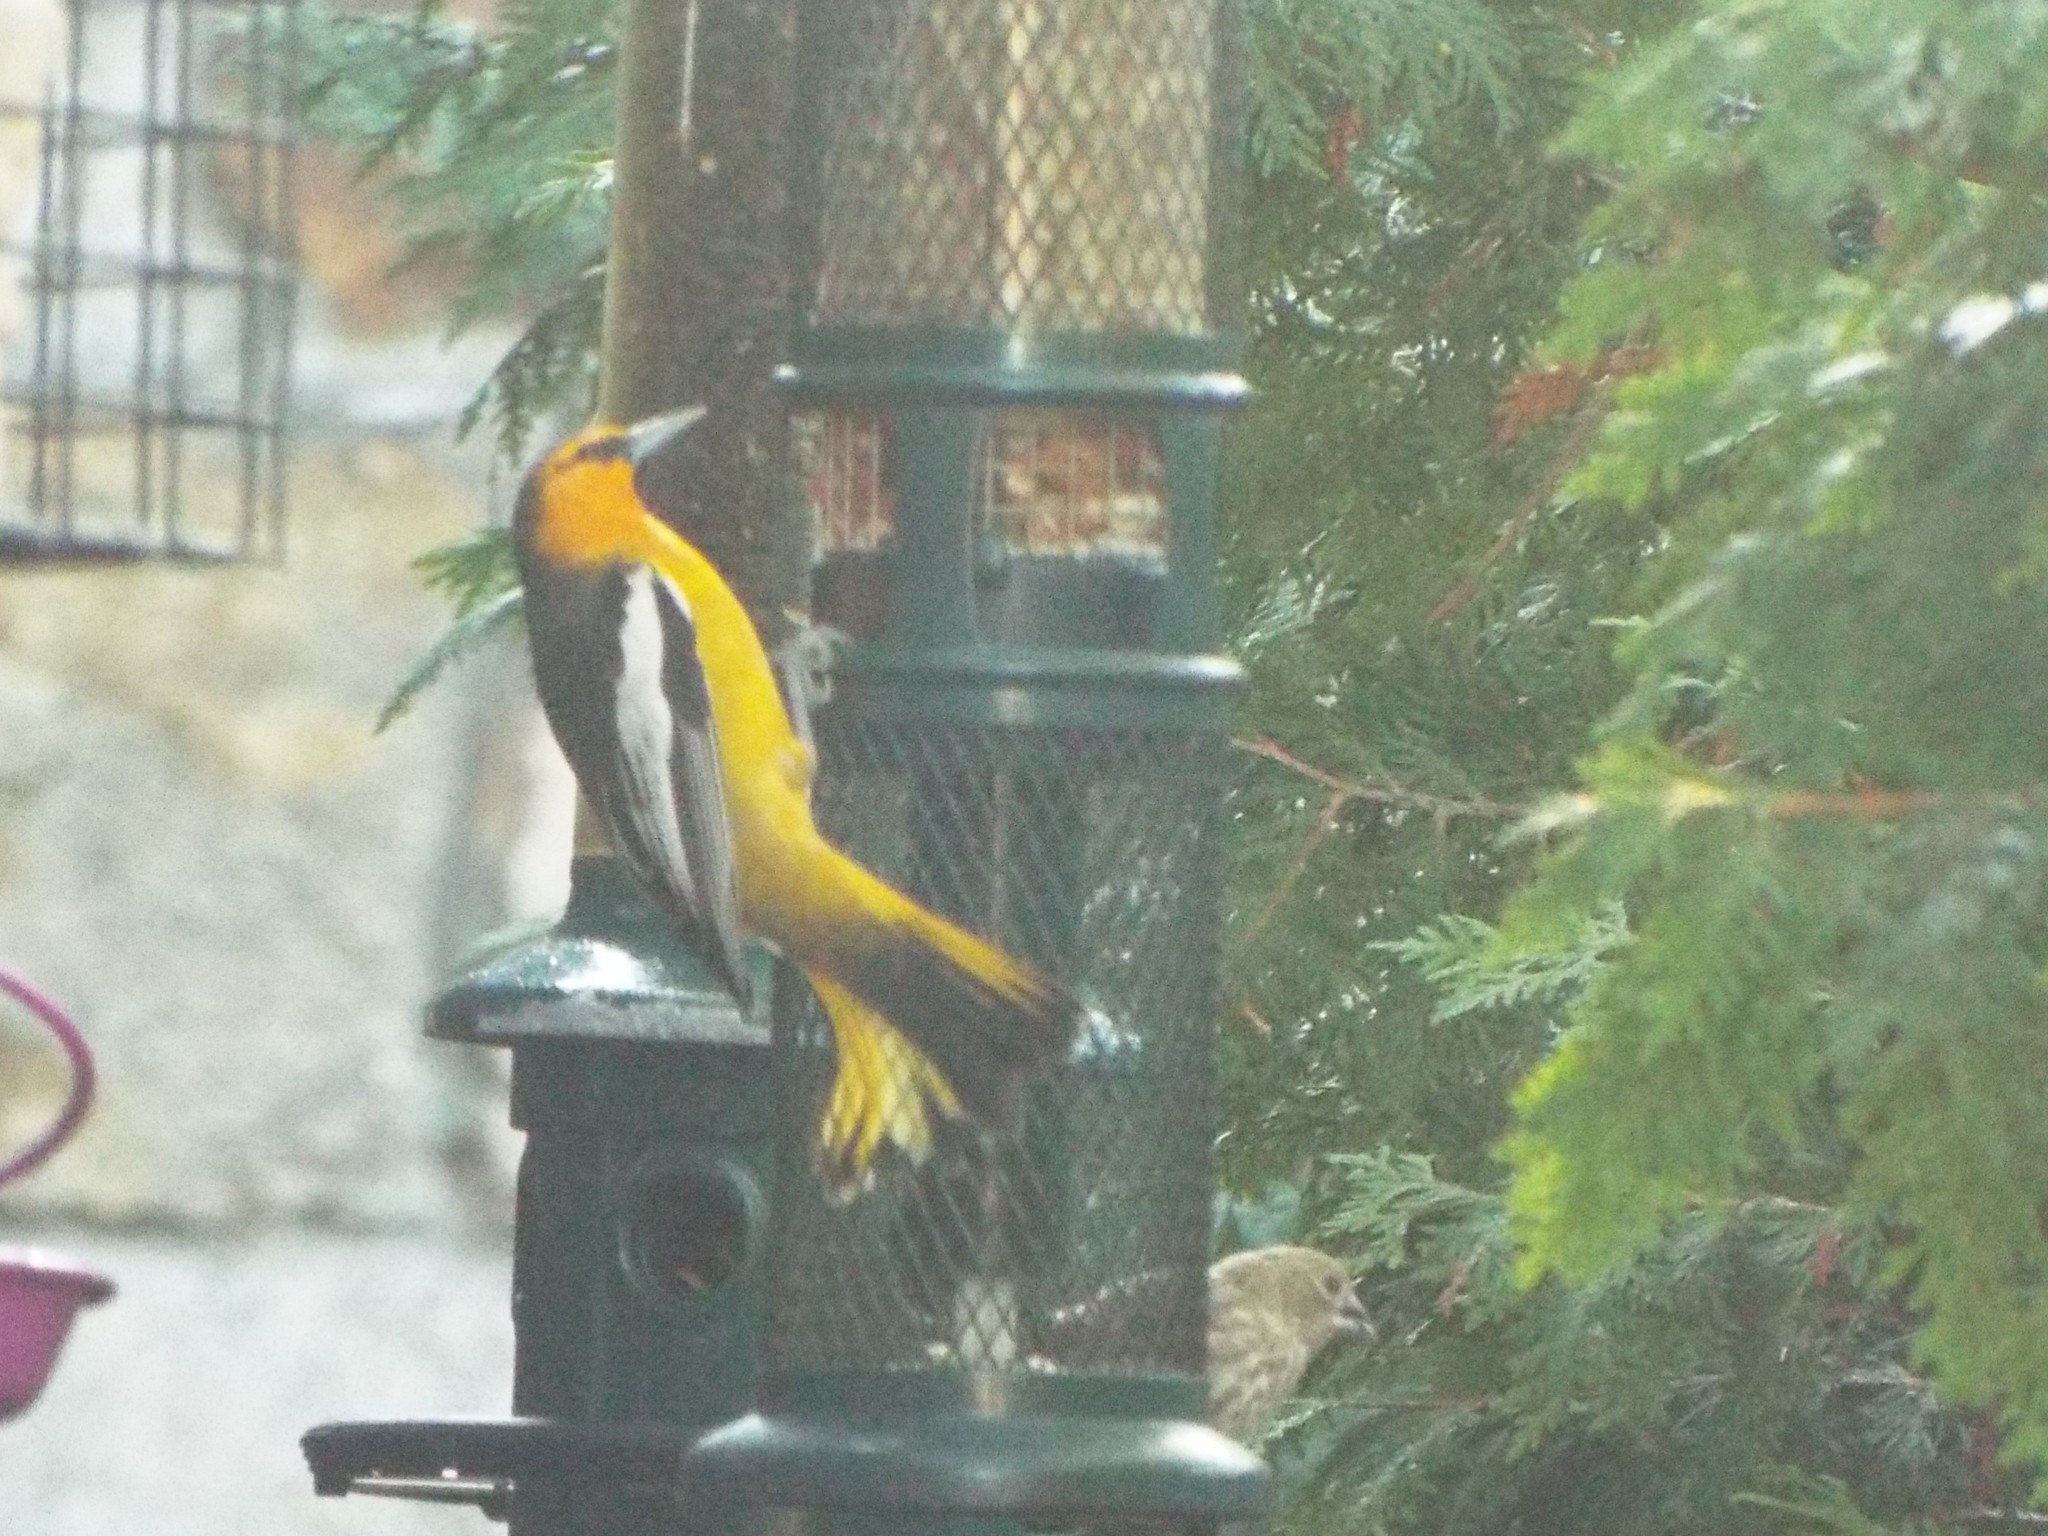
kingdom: Animalia
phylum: Chordata
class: Aves
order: Passeriformes
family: Icteridae
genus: Icterus
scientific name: Icterus bullockii
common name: Bullock's oriole
